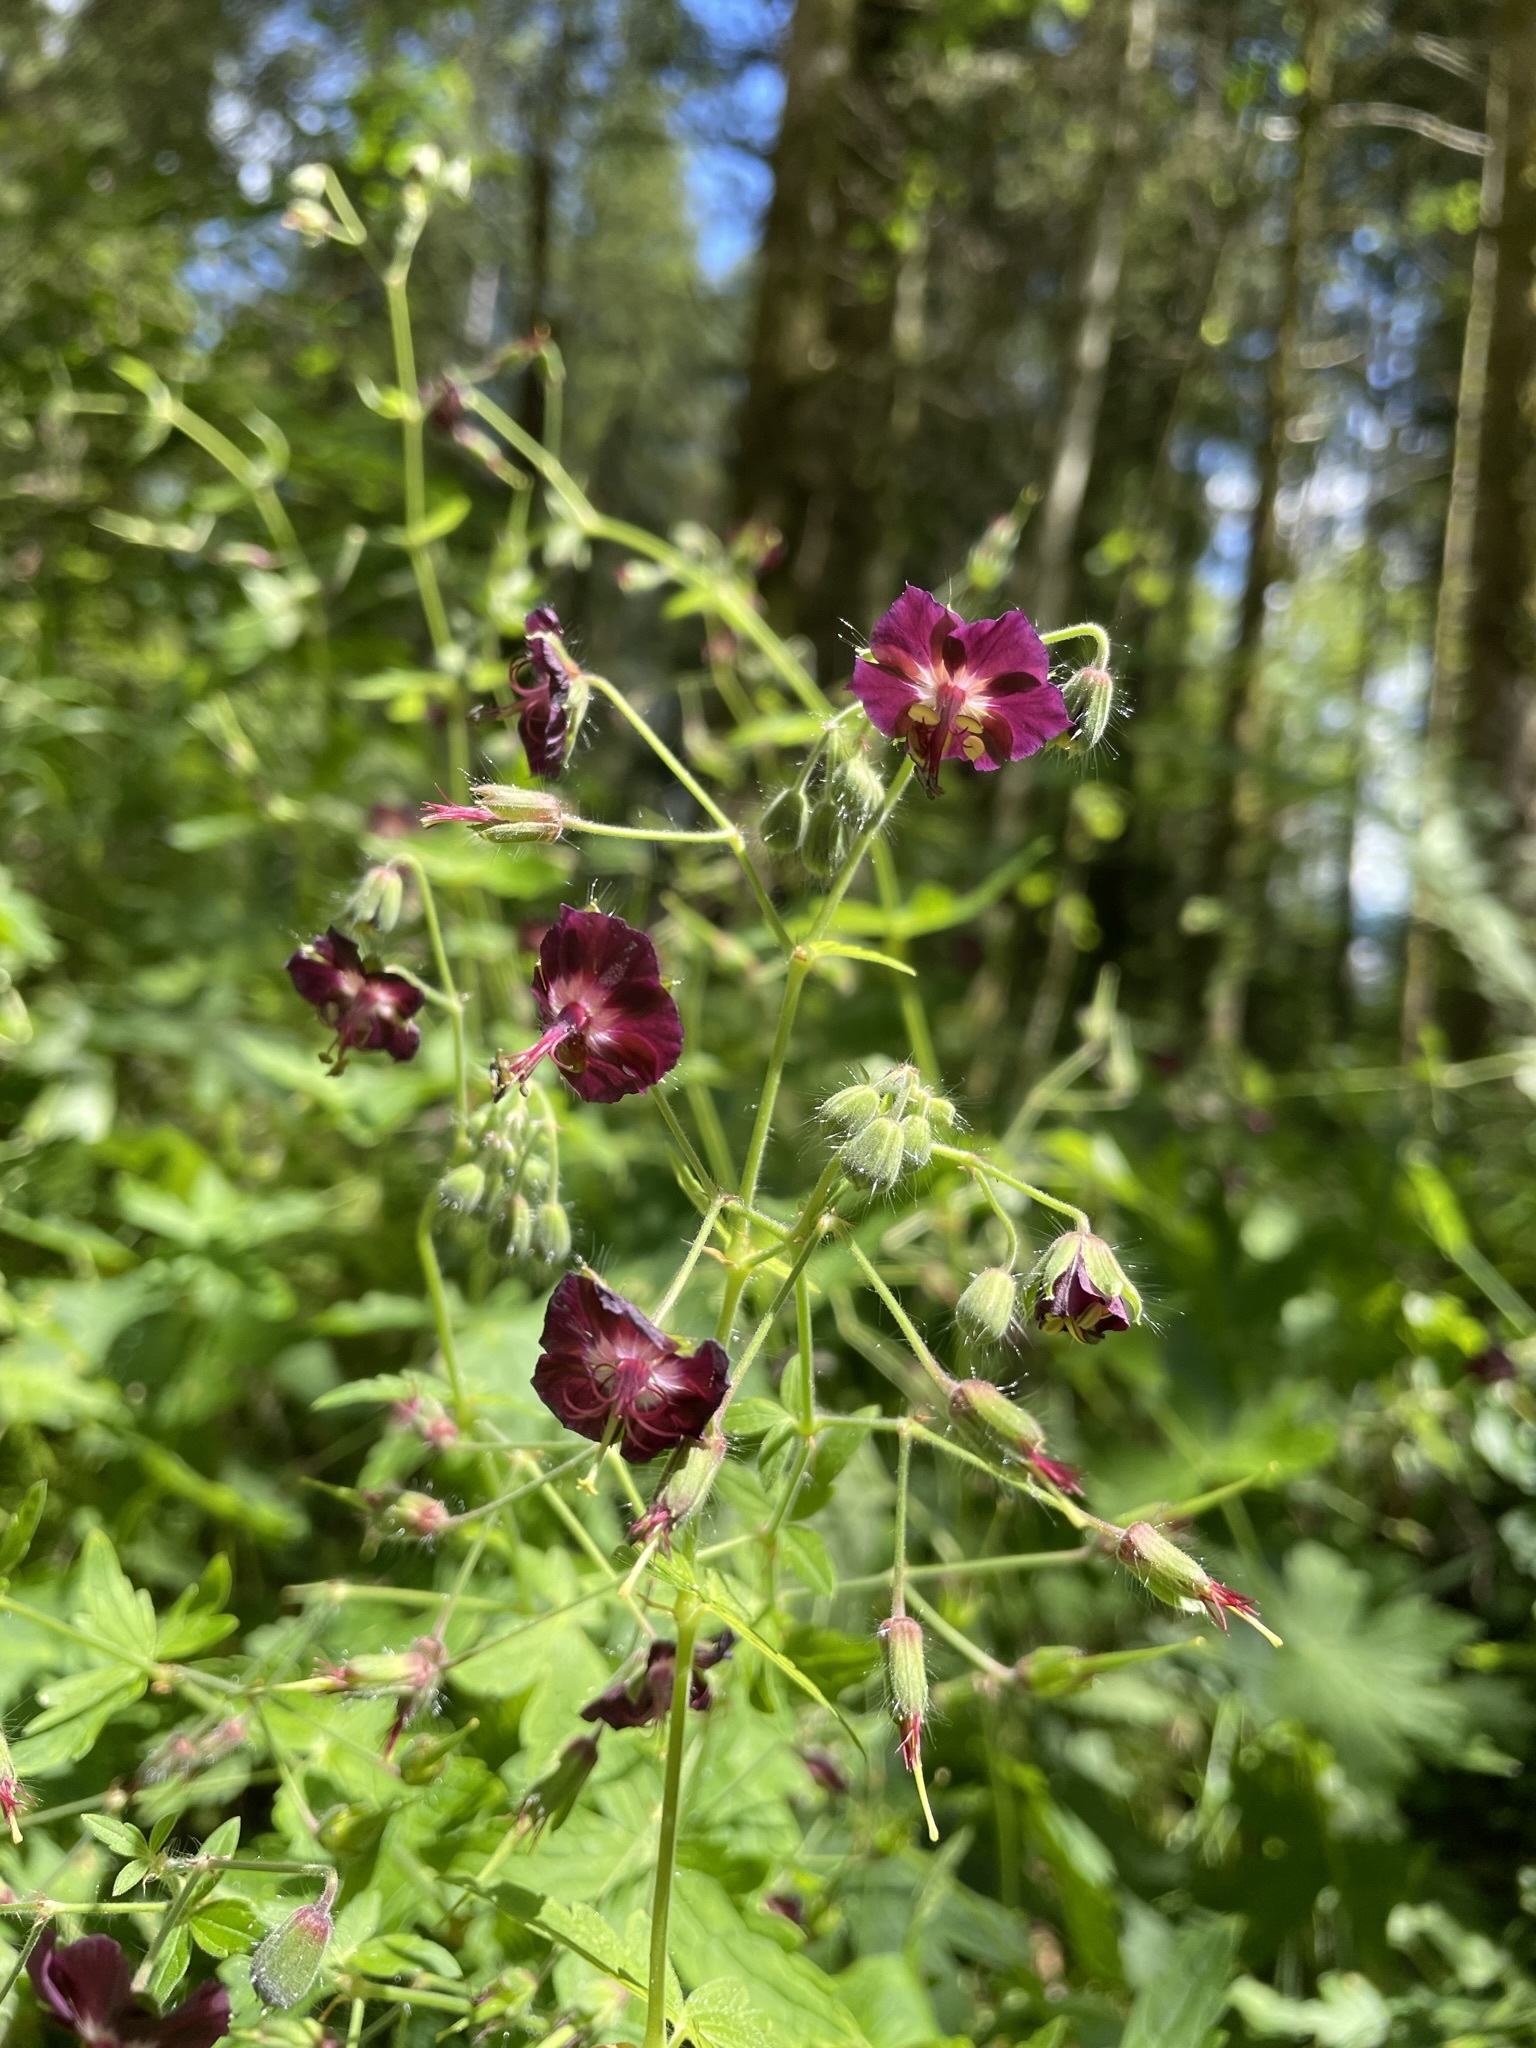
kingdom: Plantae
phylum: Tracheophyta
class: Magnoliopsida
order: Geraniales
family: Geraniaceae
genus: Geranium
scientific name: Geranium phaeum
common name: Dusky crane's-bill
